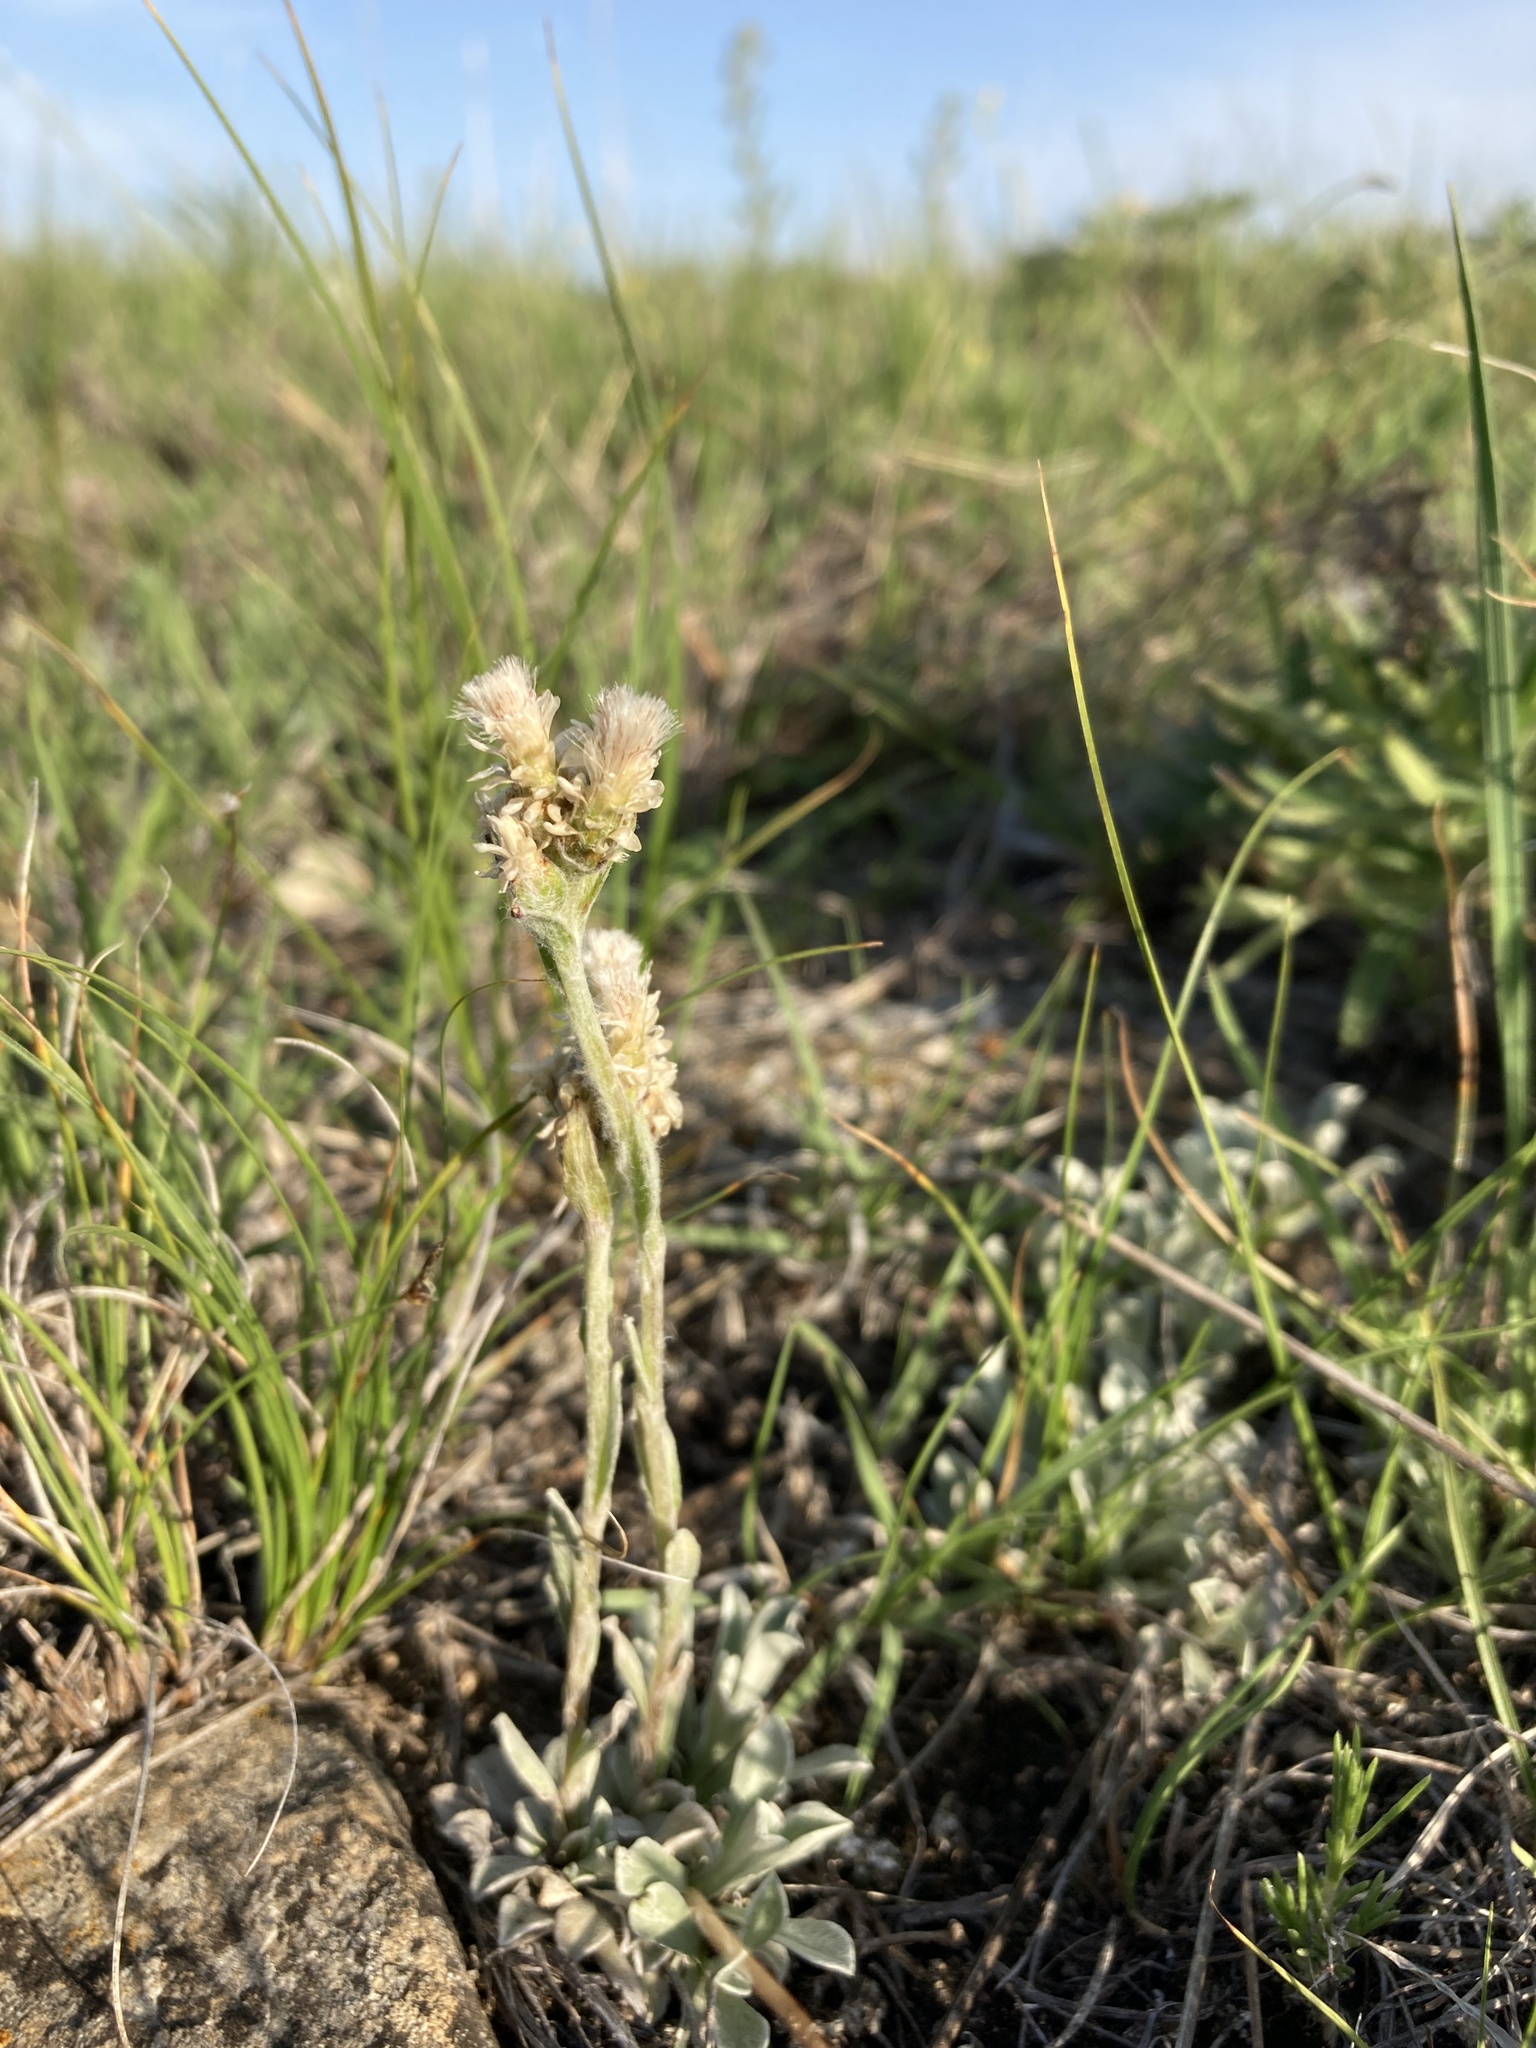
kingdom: Plantae
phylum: Tracheophyta
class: Magnoliopsida
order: Asterales
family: Asteraceae
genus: Antennaria
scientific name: Antennaria parvifolia
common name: Nuttall's pussytoes
